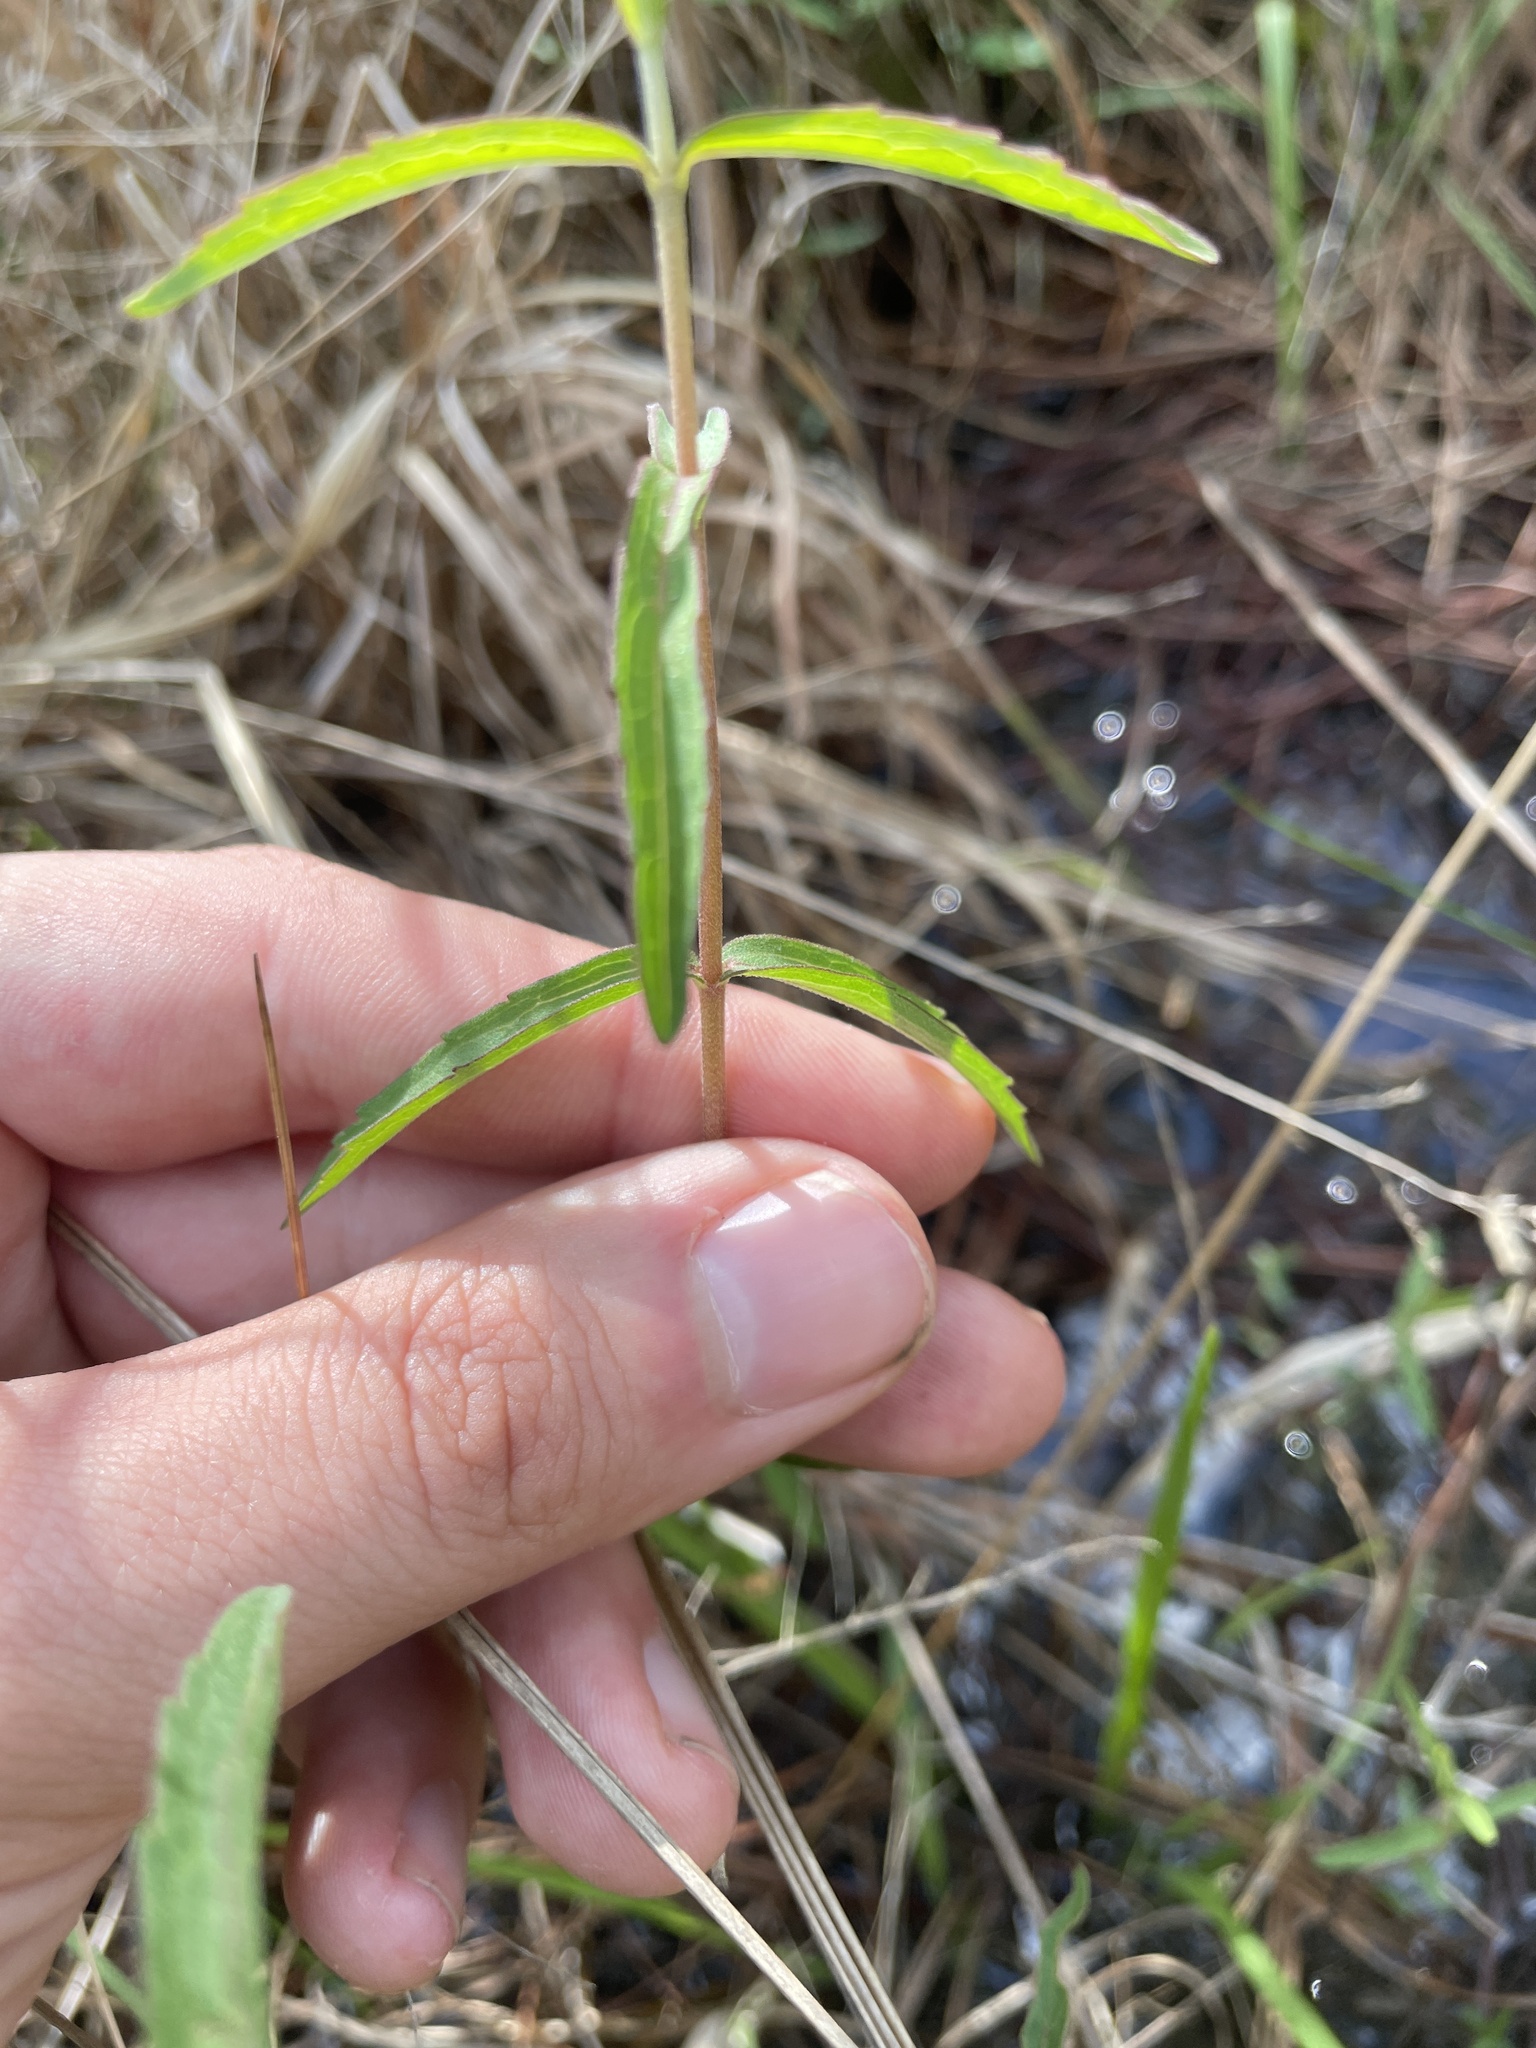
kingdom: Plantae
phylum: Tracheophyta
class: Magnoliopsida
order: Asterales
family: Asteraceae
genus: Eupatorium
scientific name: Eupatorium leucolepis
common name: Justiceweed
